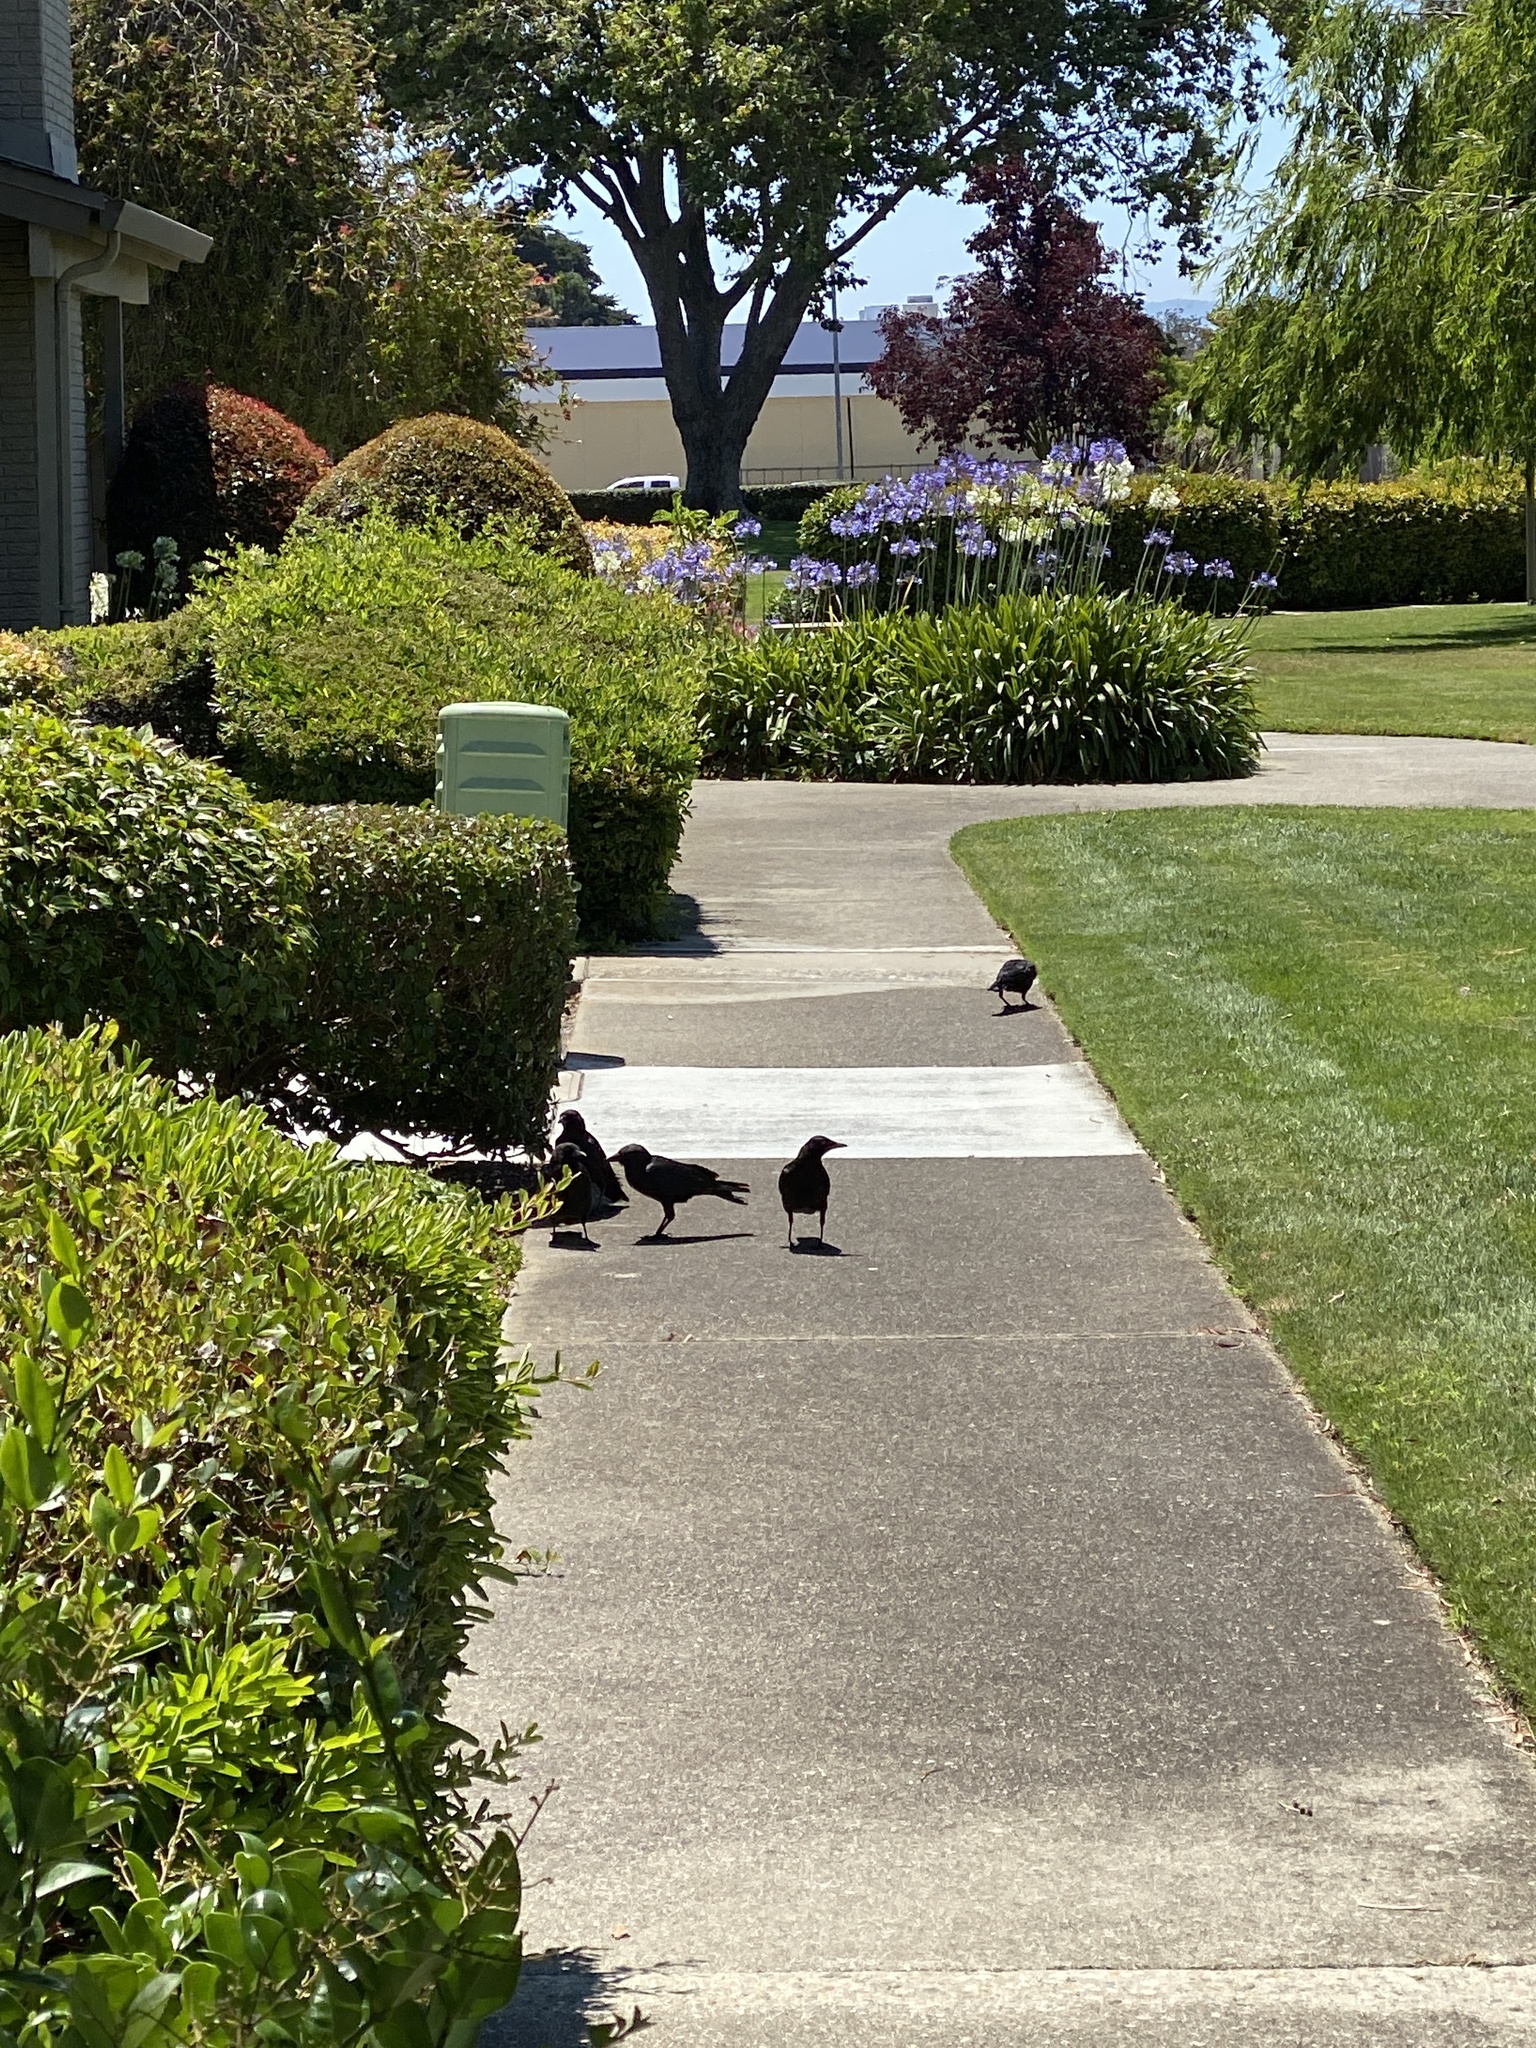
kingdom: Animalia
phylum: Chordata
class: Aves
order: Passeriformes
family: Corvidae
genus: Corvus
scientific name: Corvus brachyrhynchos
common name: American crow
